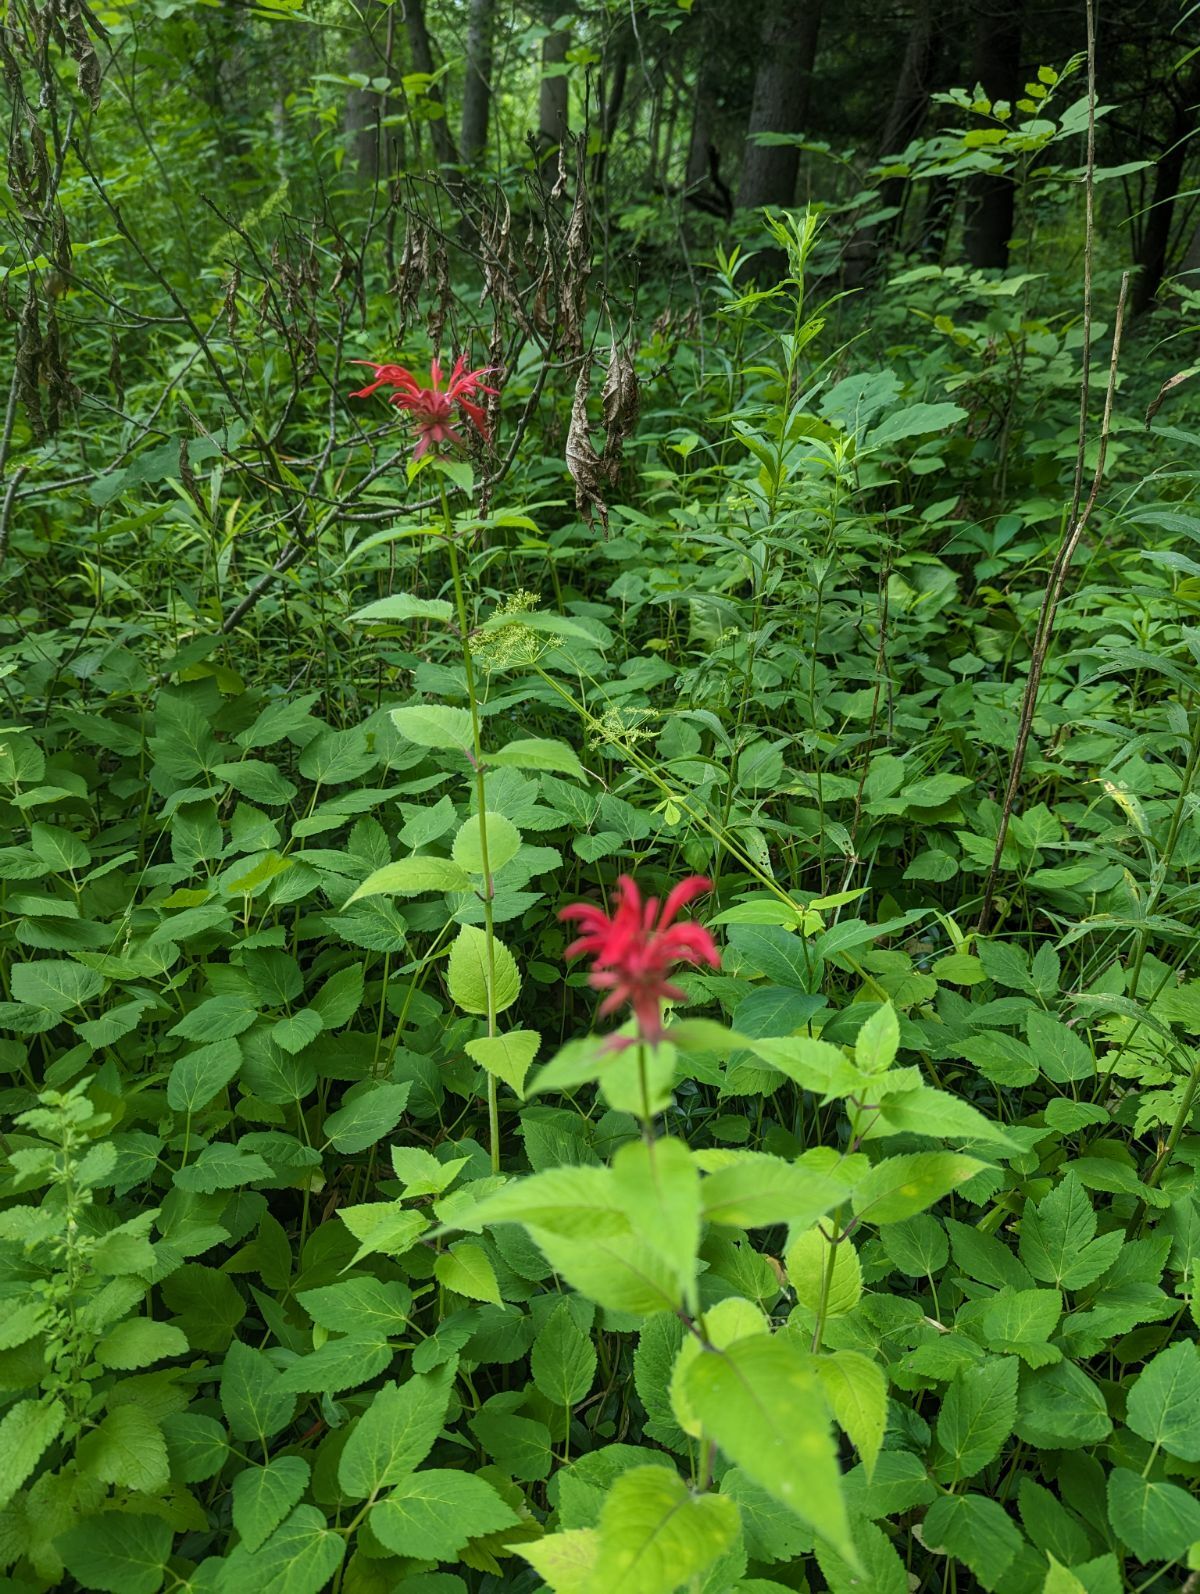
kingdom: Plantae
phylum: Tracheophyta
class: Magnoliopsida
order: Lamiales
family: Lamiaceae
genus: Monarda
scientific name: Monarda didyma
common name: Beebalm
